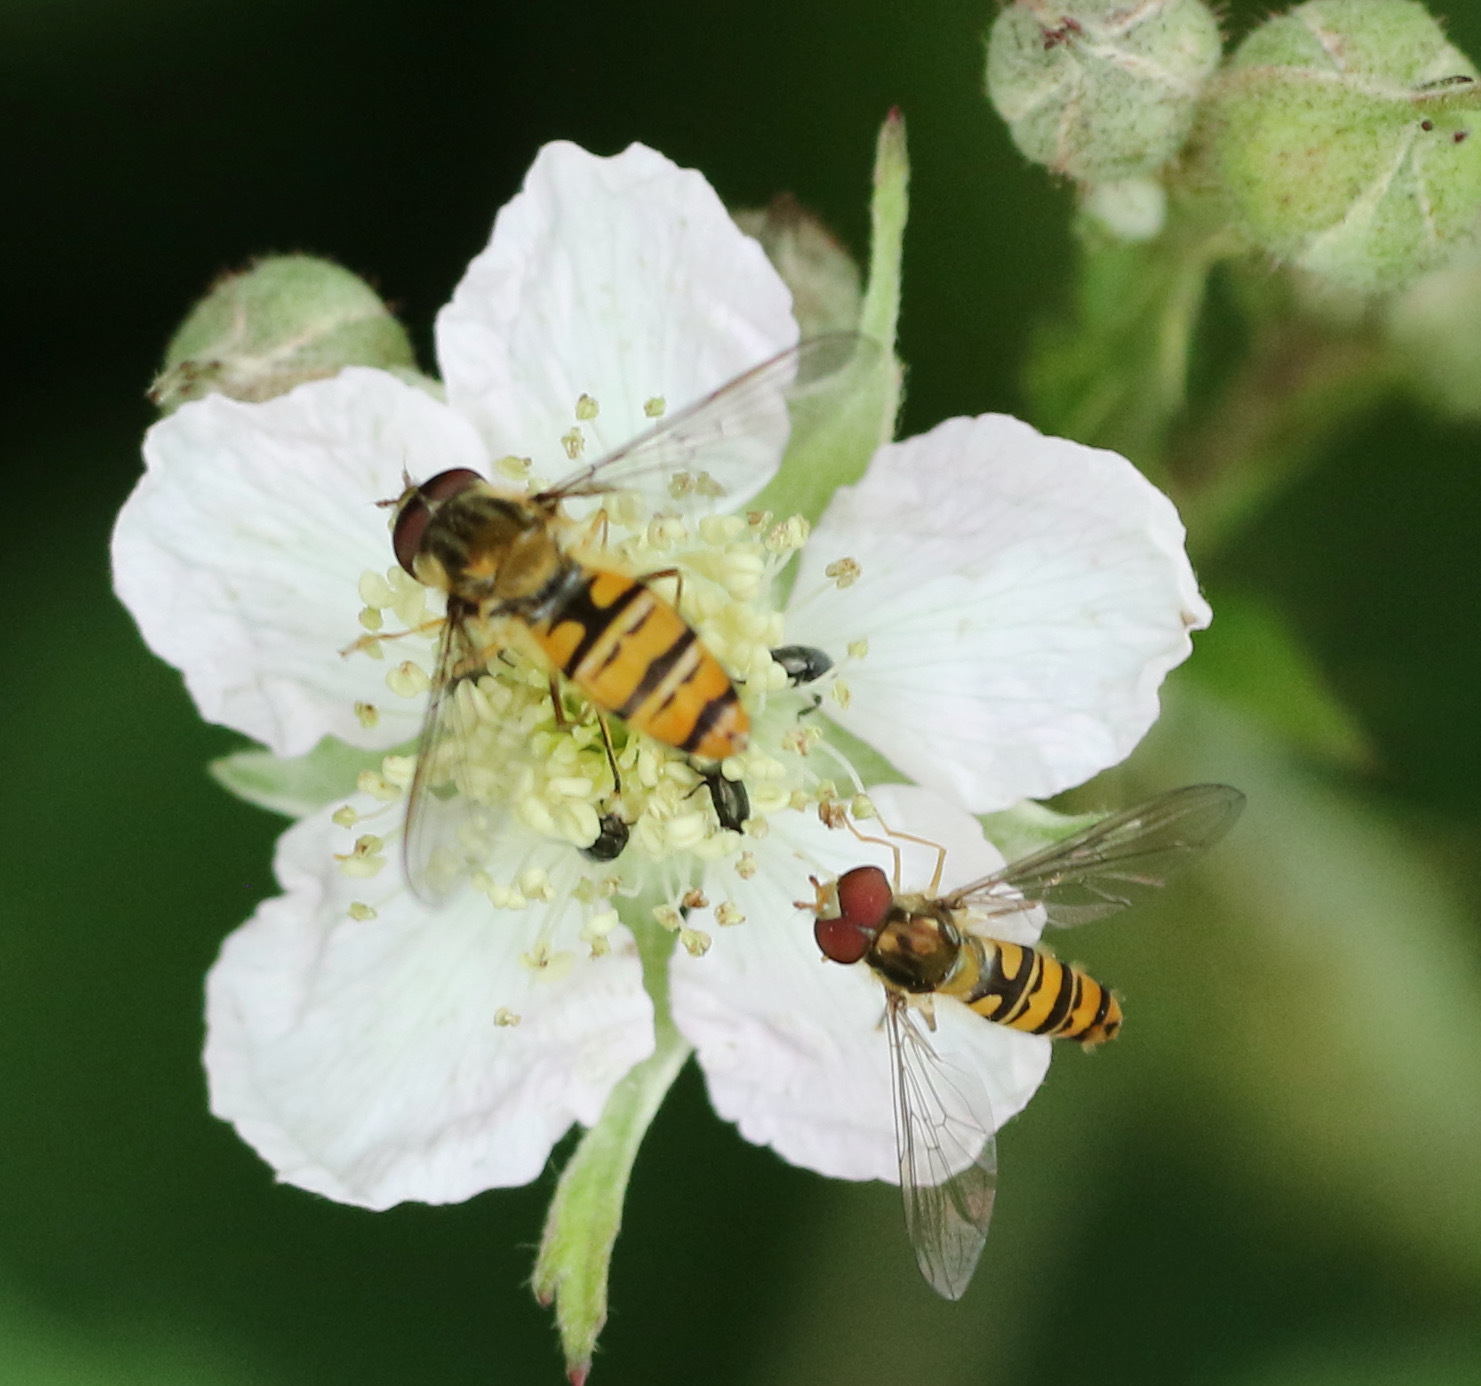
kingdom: Animalia
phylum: Arthropoda
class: Insecta
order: Diptera
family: Syrphidae
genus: Episyrphus
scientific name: Episyrphus balteatus
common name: Marmalade hoverfly
